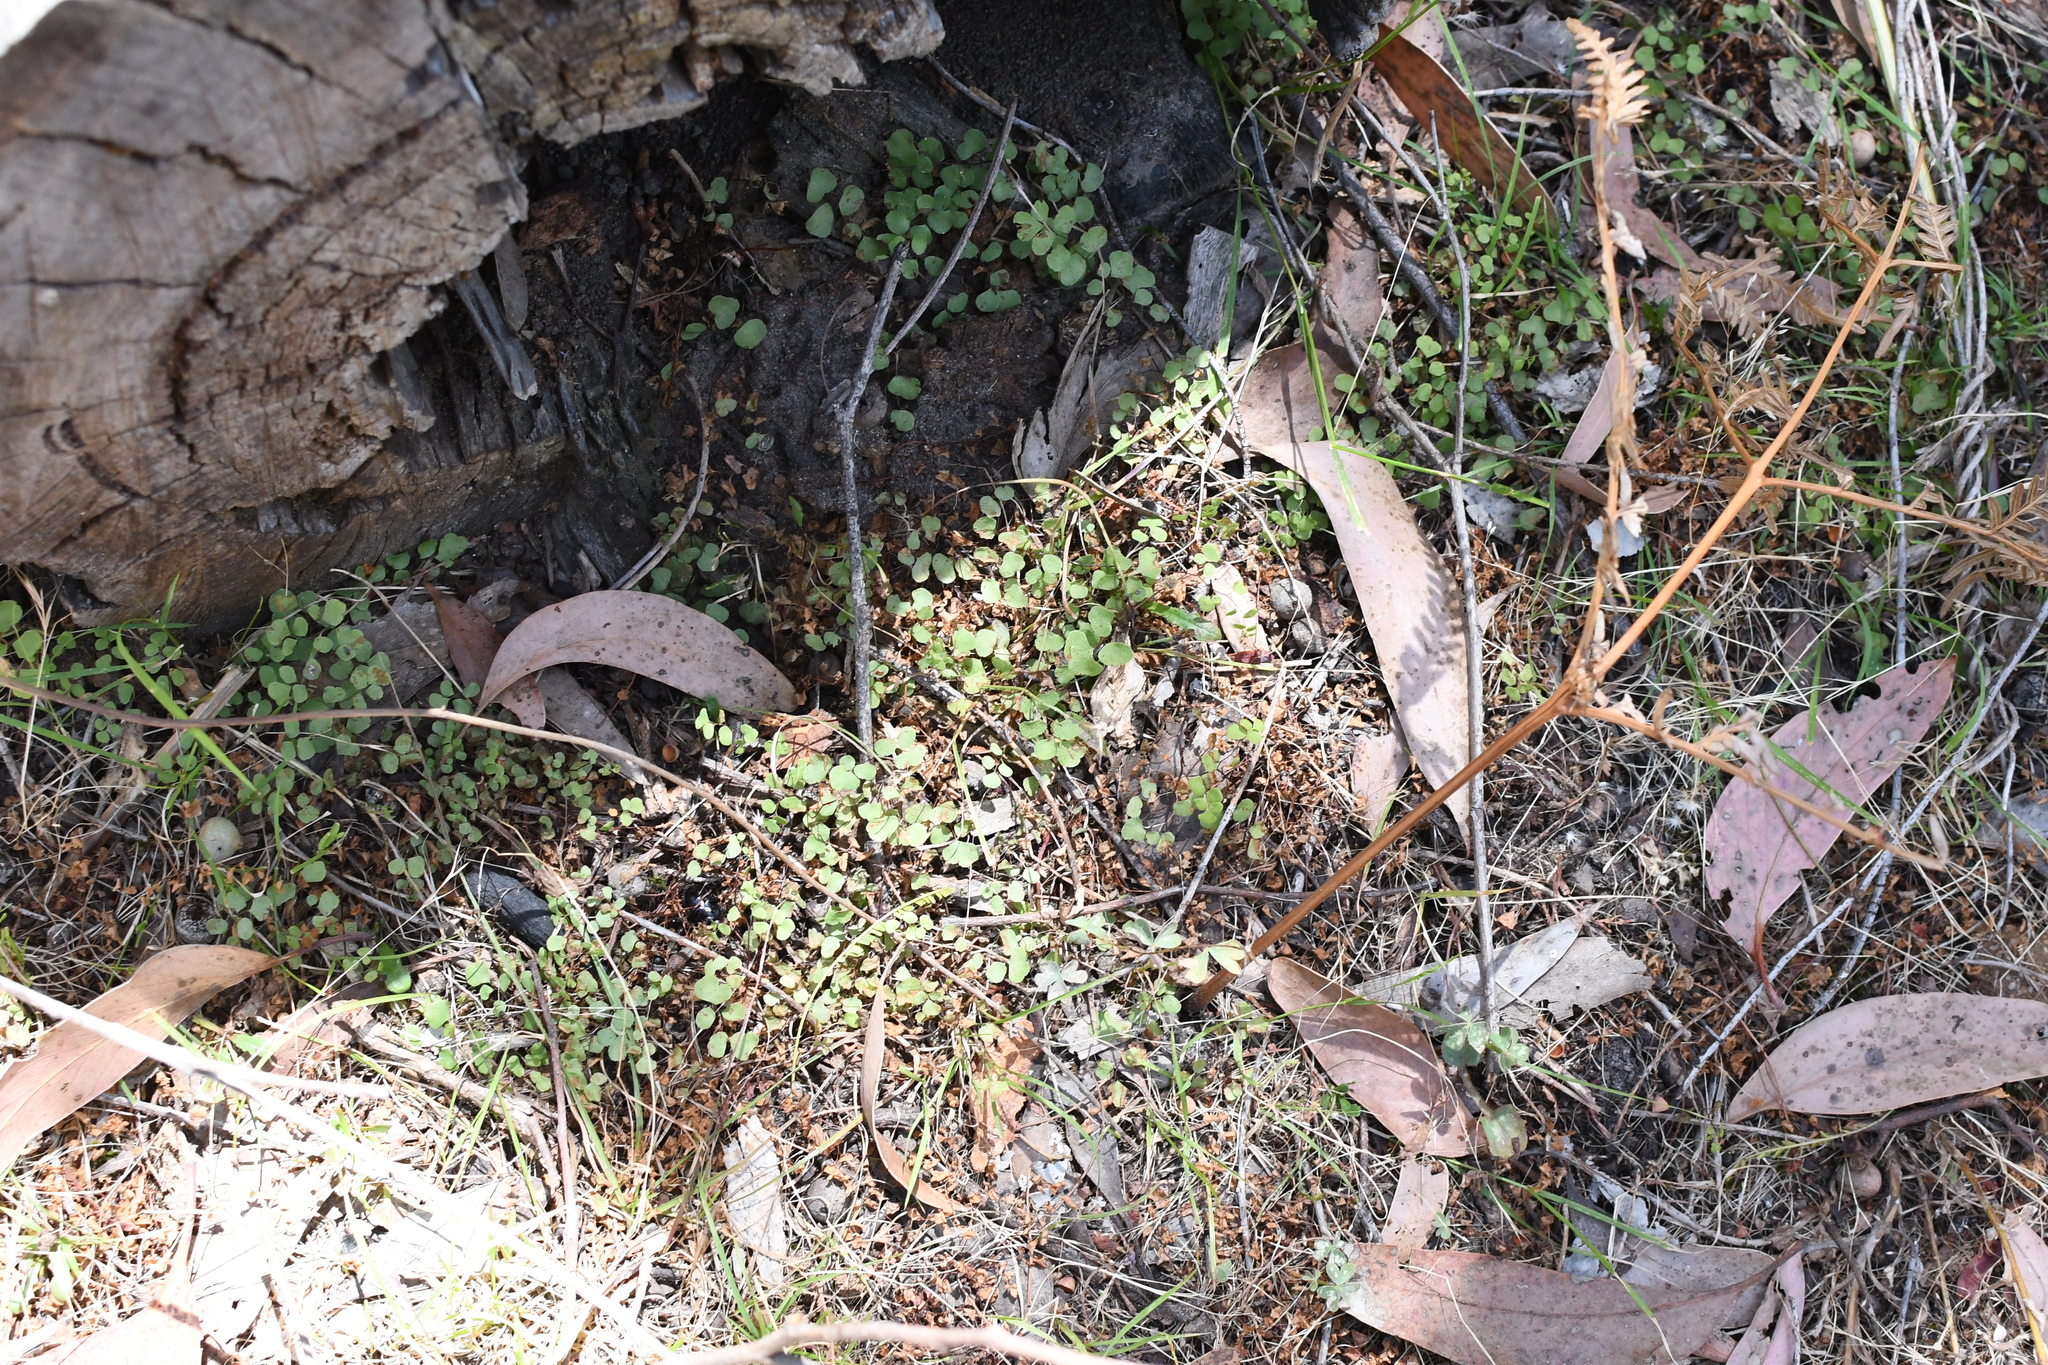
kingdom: Plantae
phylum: Tracheophyta
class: Polypodiopsida
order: Polypodiales
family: Pteridaceae
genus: Adiantum
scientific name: Adiantum aethiopicum
